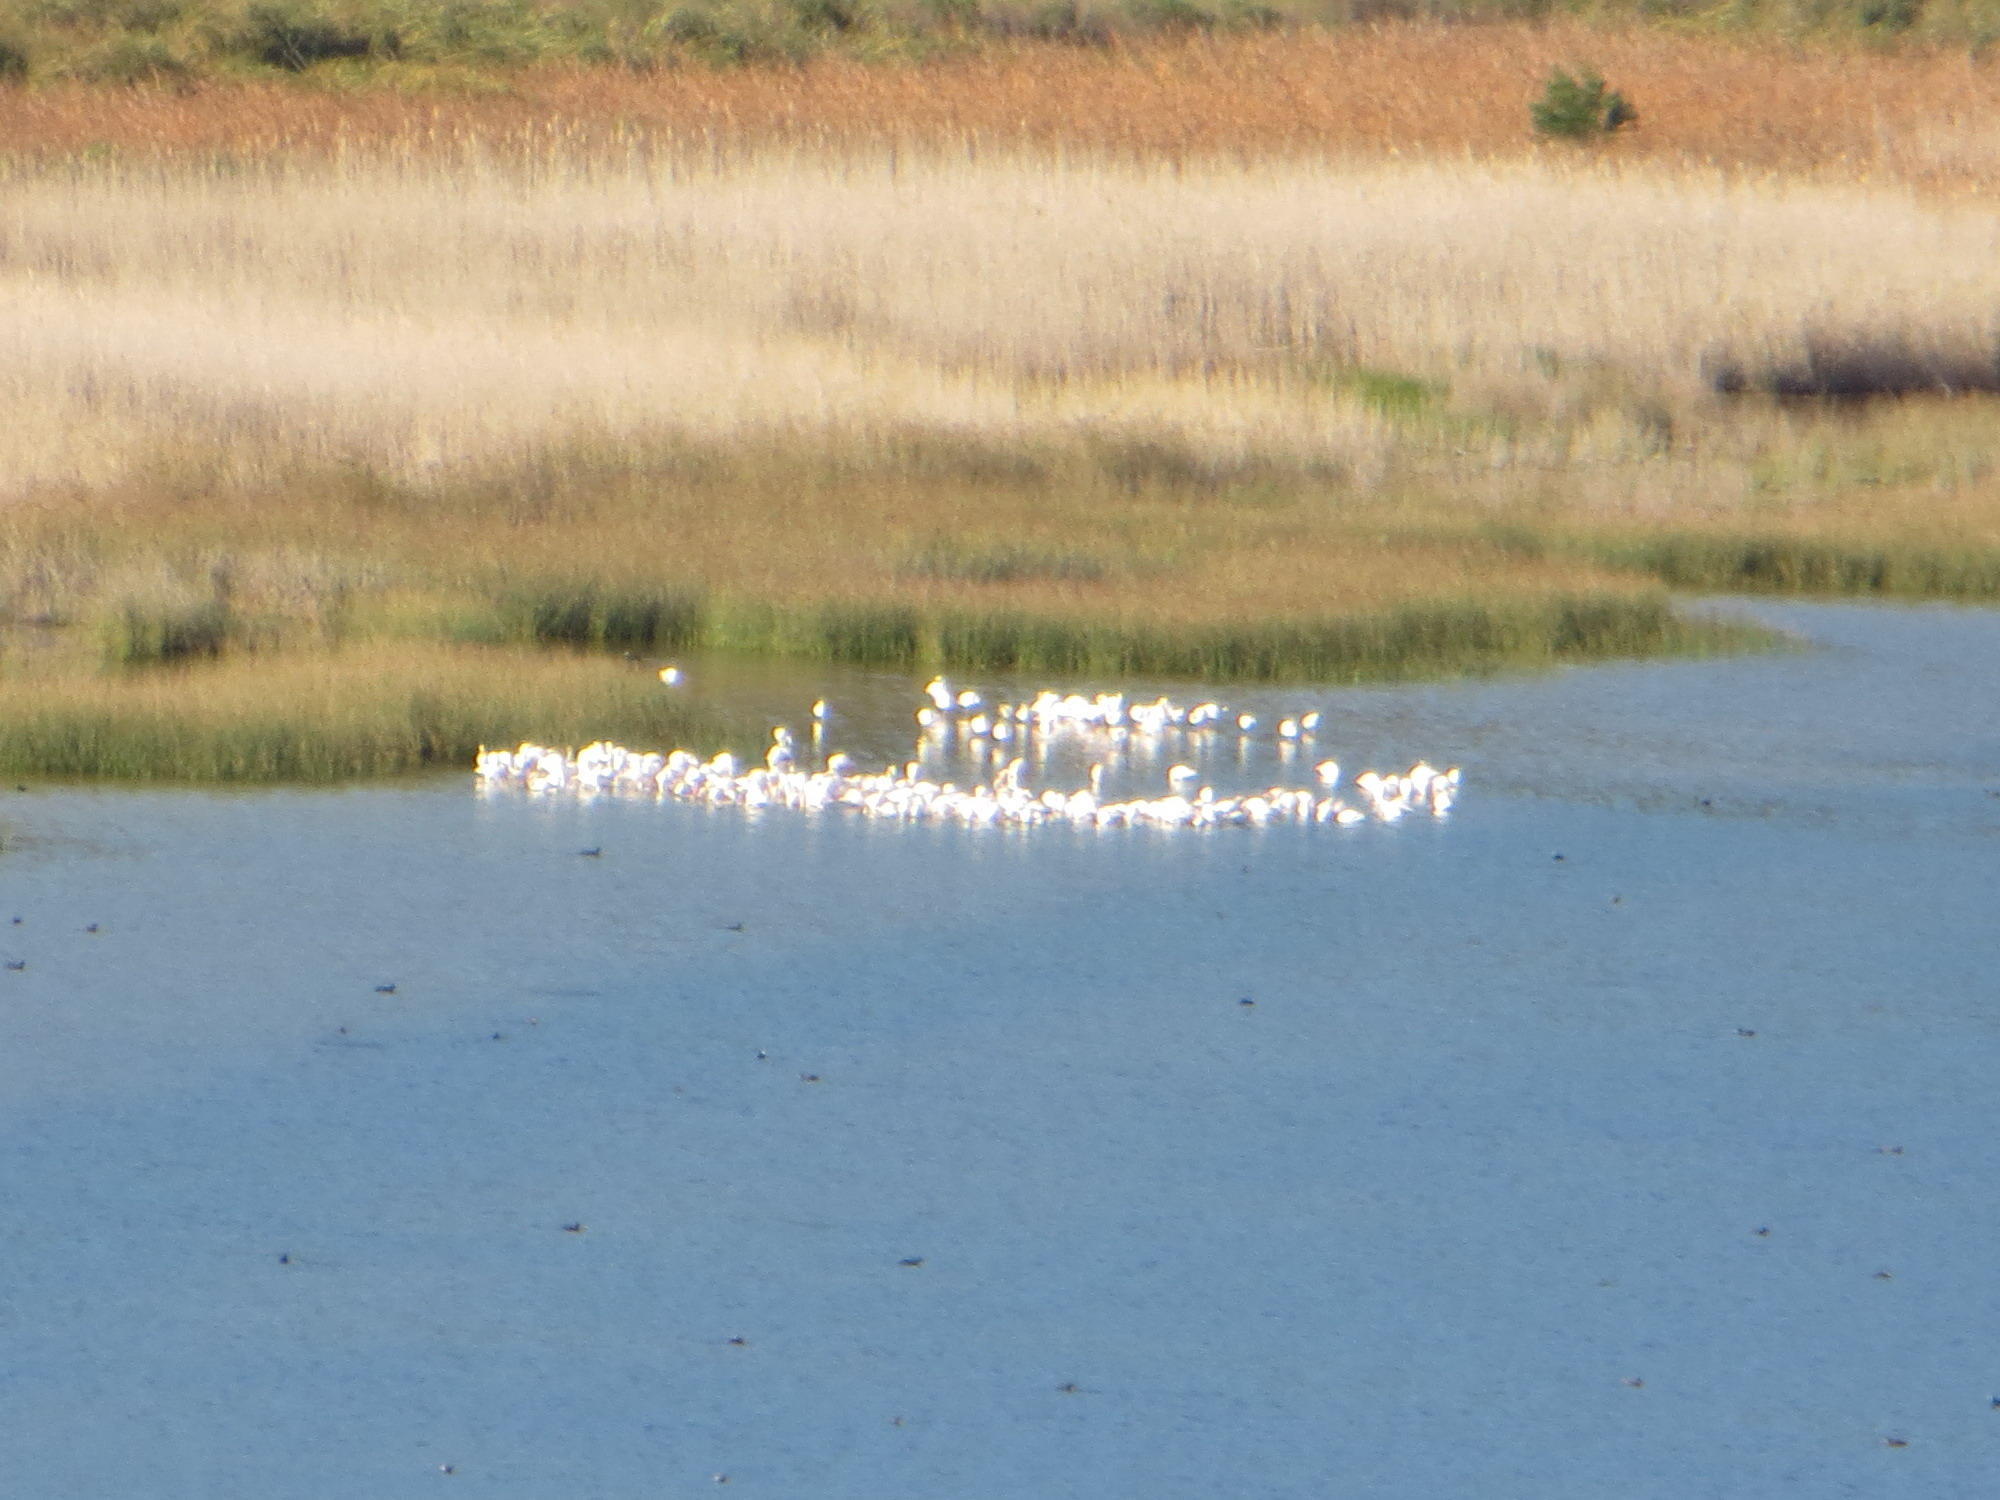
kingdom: Animalia
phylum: Chordata
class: Aves
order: Phoenicopteriformes
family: Phoenicopteridae
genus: Phoenicopterus
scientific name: Phoenicopterus roseus
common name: Greater flamingo
